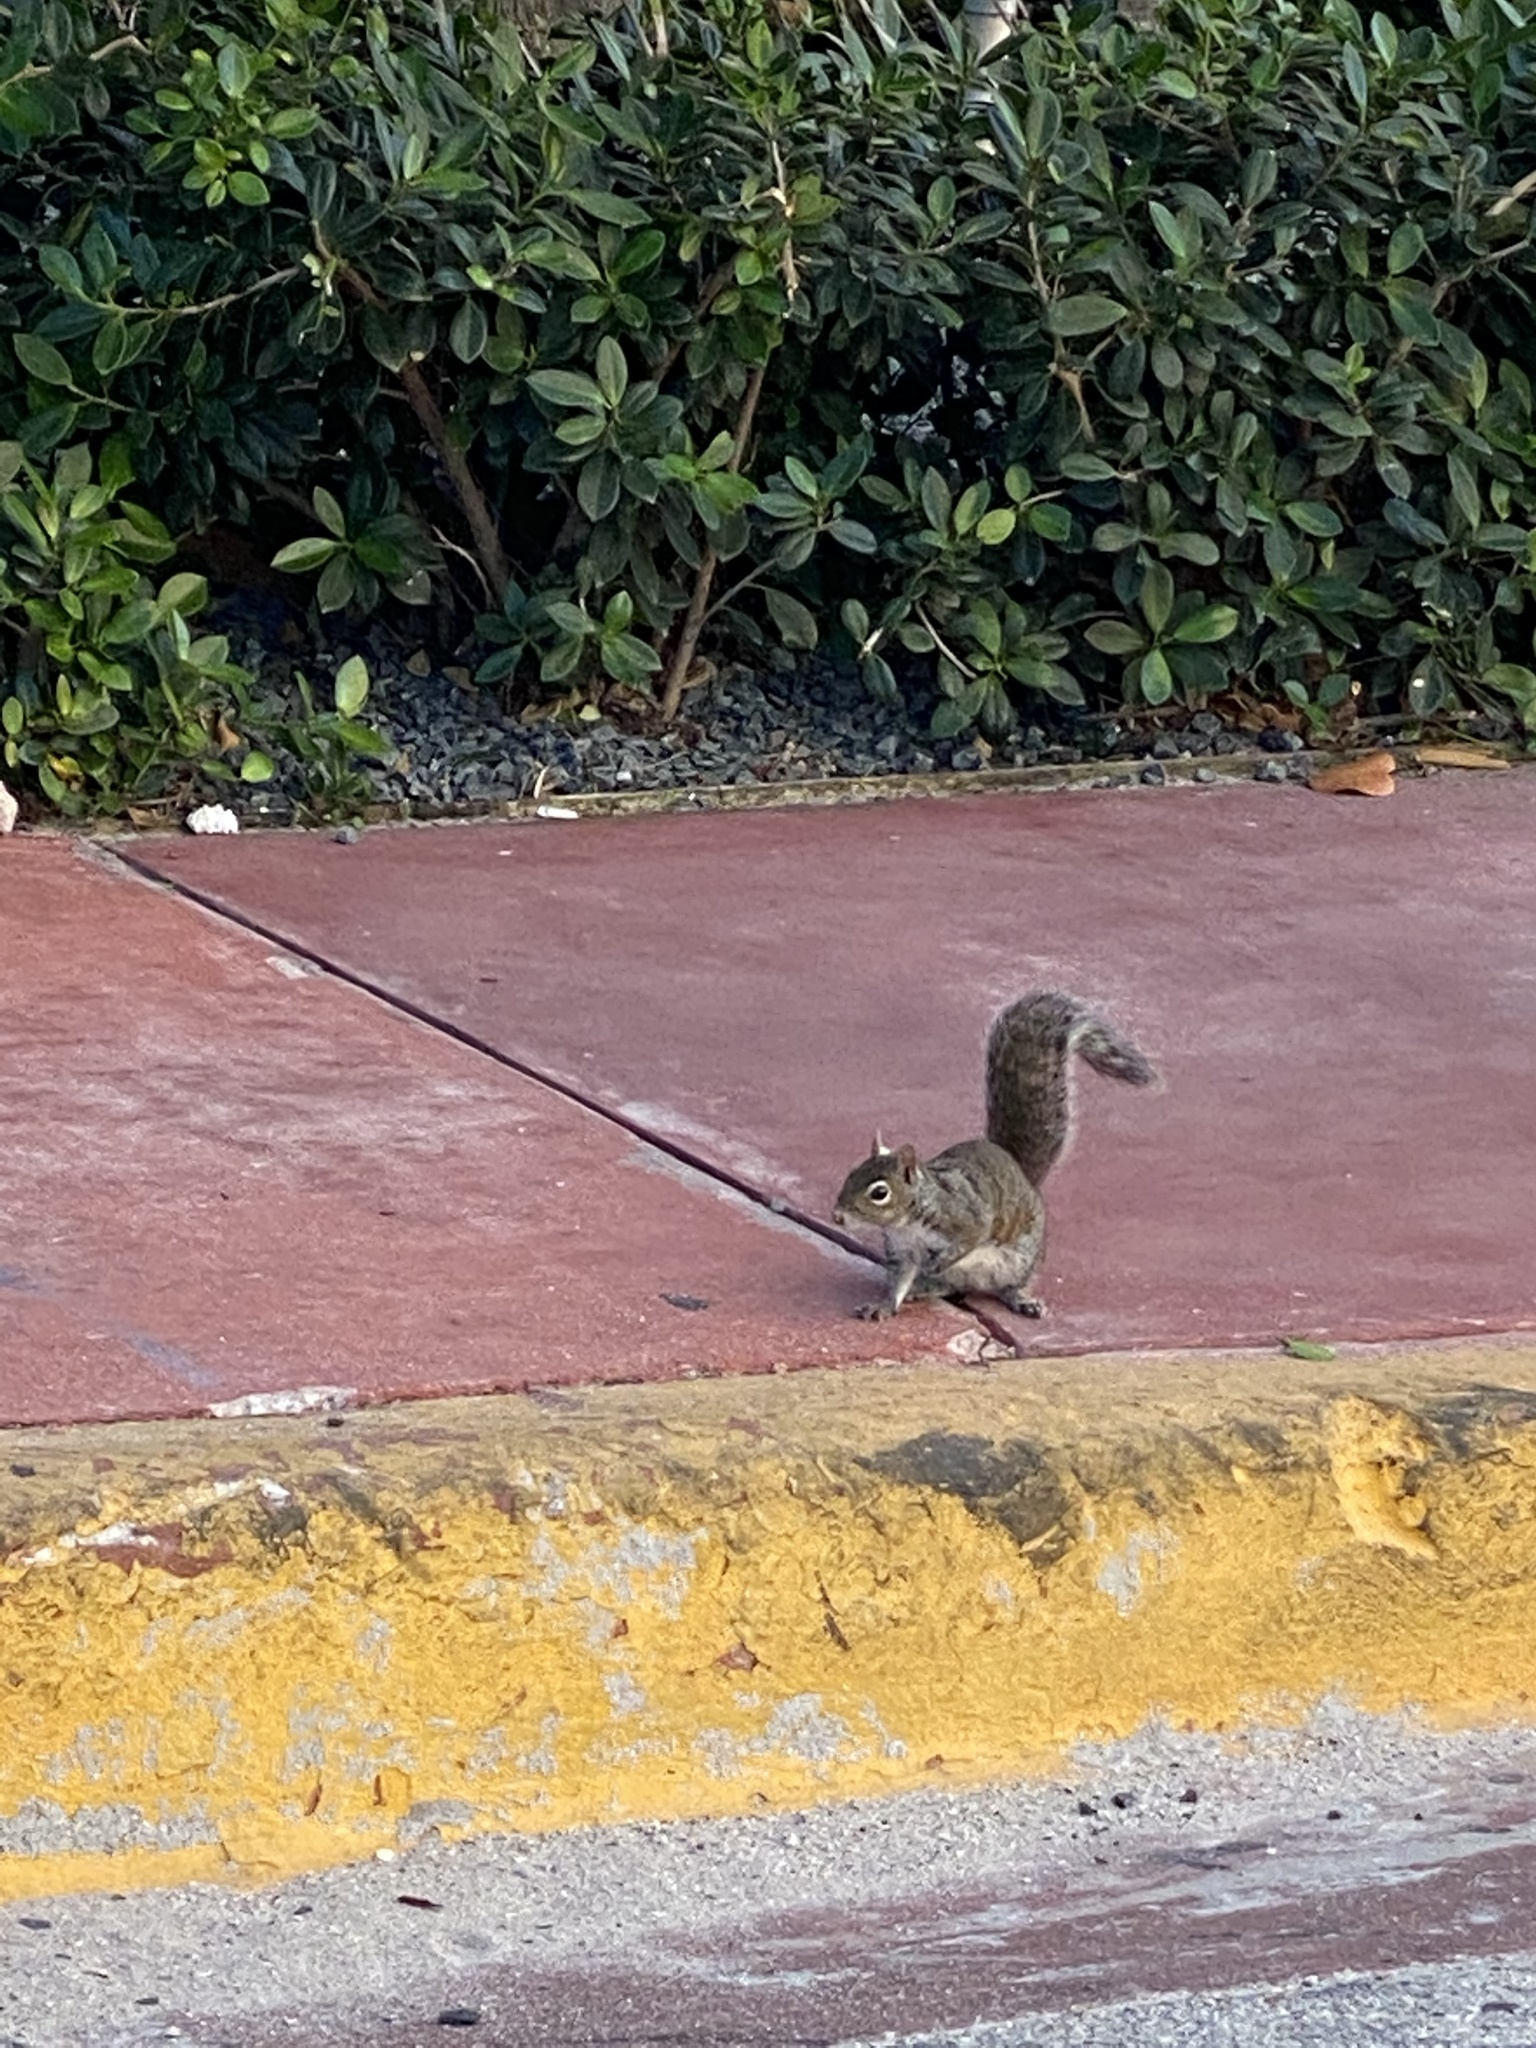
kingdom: Animalia
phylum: Chordata
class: Mammalia
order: Rodentia
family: Sciuridae
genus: Sciurus
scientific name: Sciurus carolinensis
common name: Eastern gray squirrel
